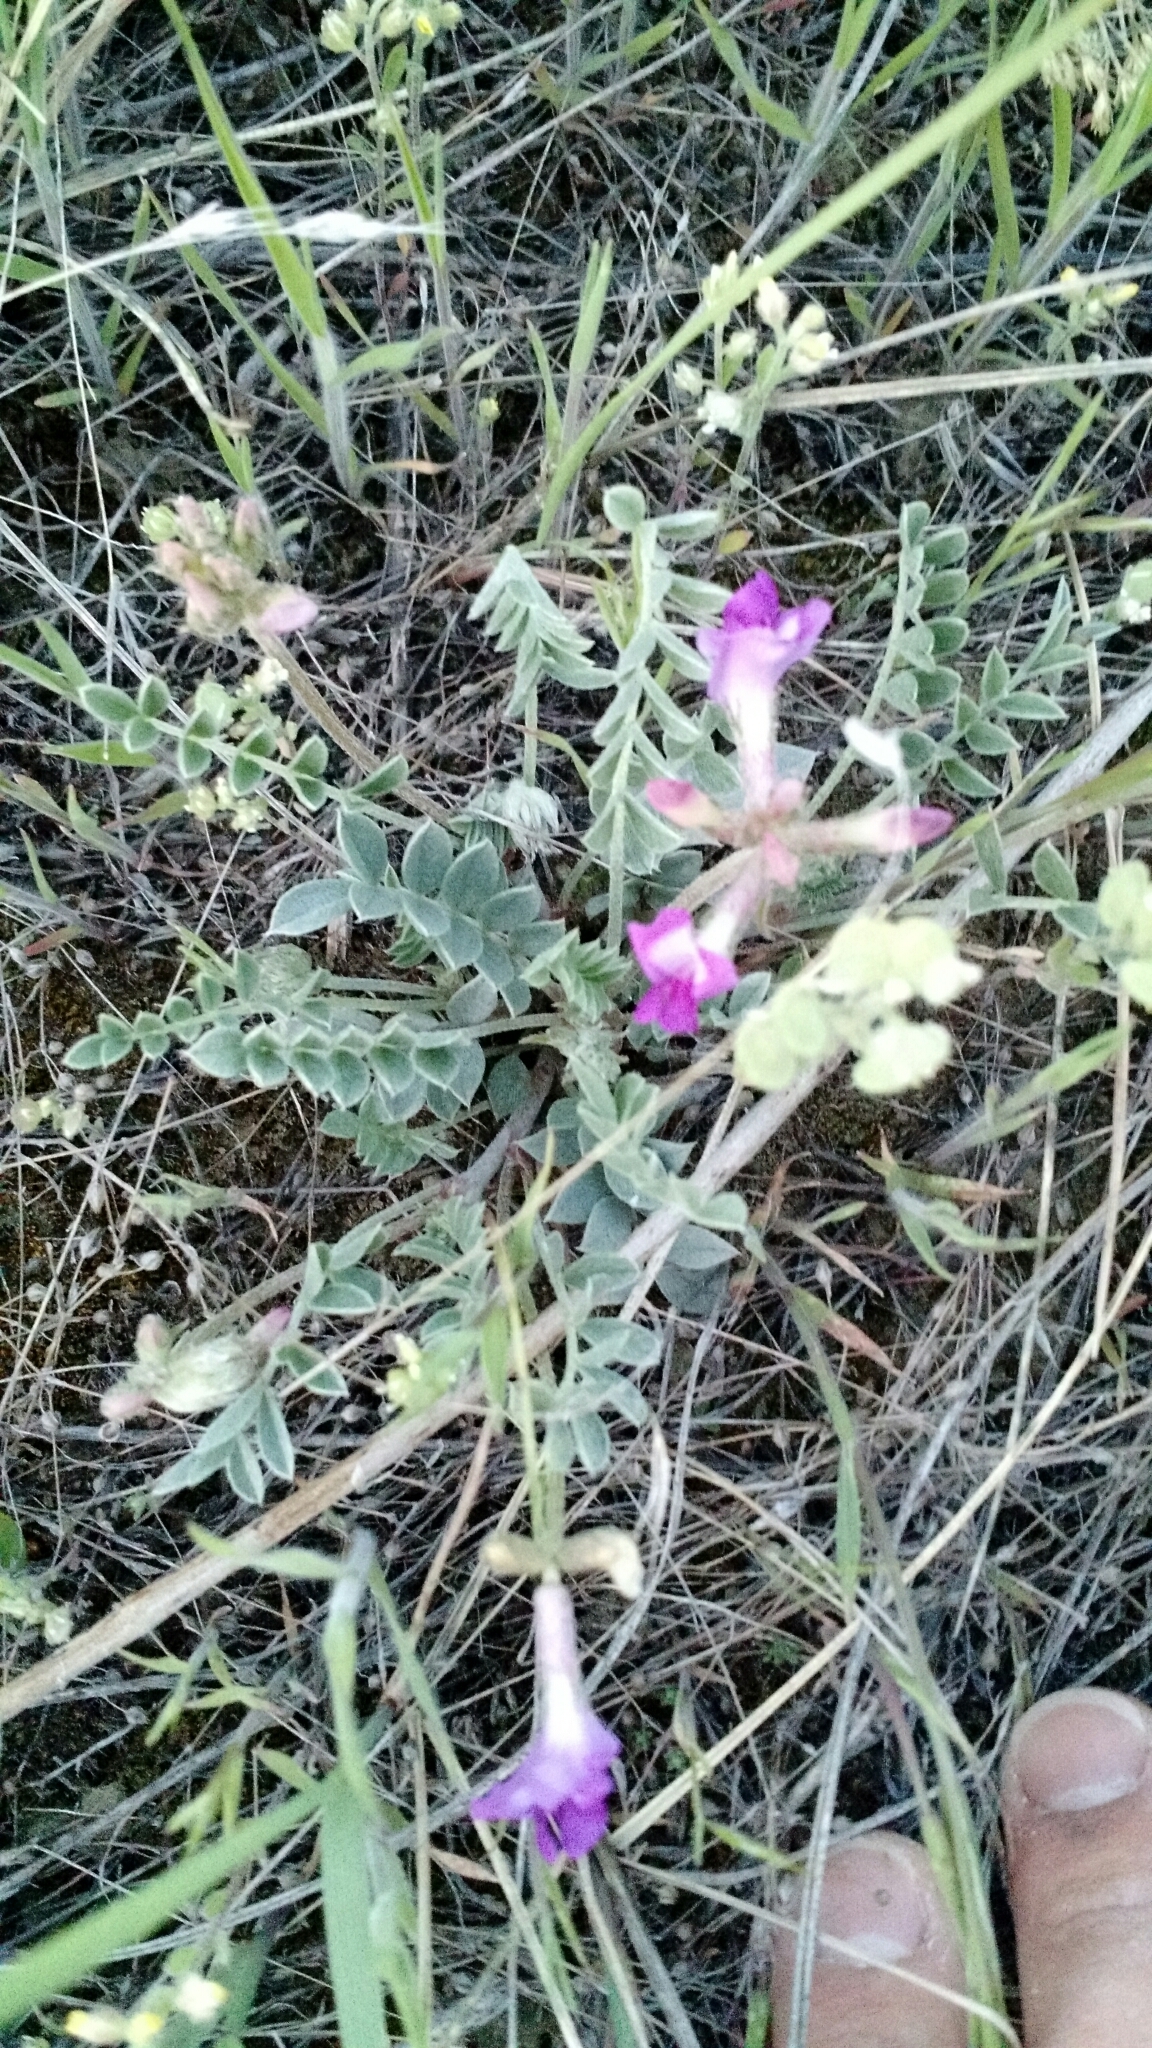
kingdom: Plantae
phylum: Tracheophyta
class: Magnoliopsida
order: Fabales
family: Fabaceae
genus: Astragalus
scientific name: Astragalus missouriensis
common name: Missouri milk-vetch
